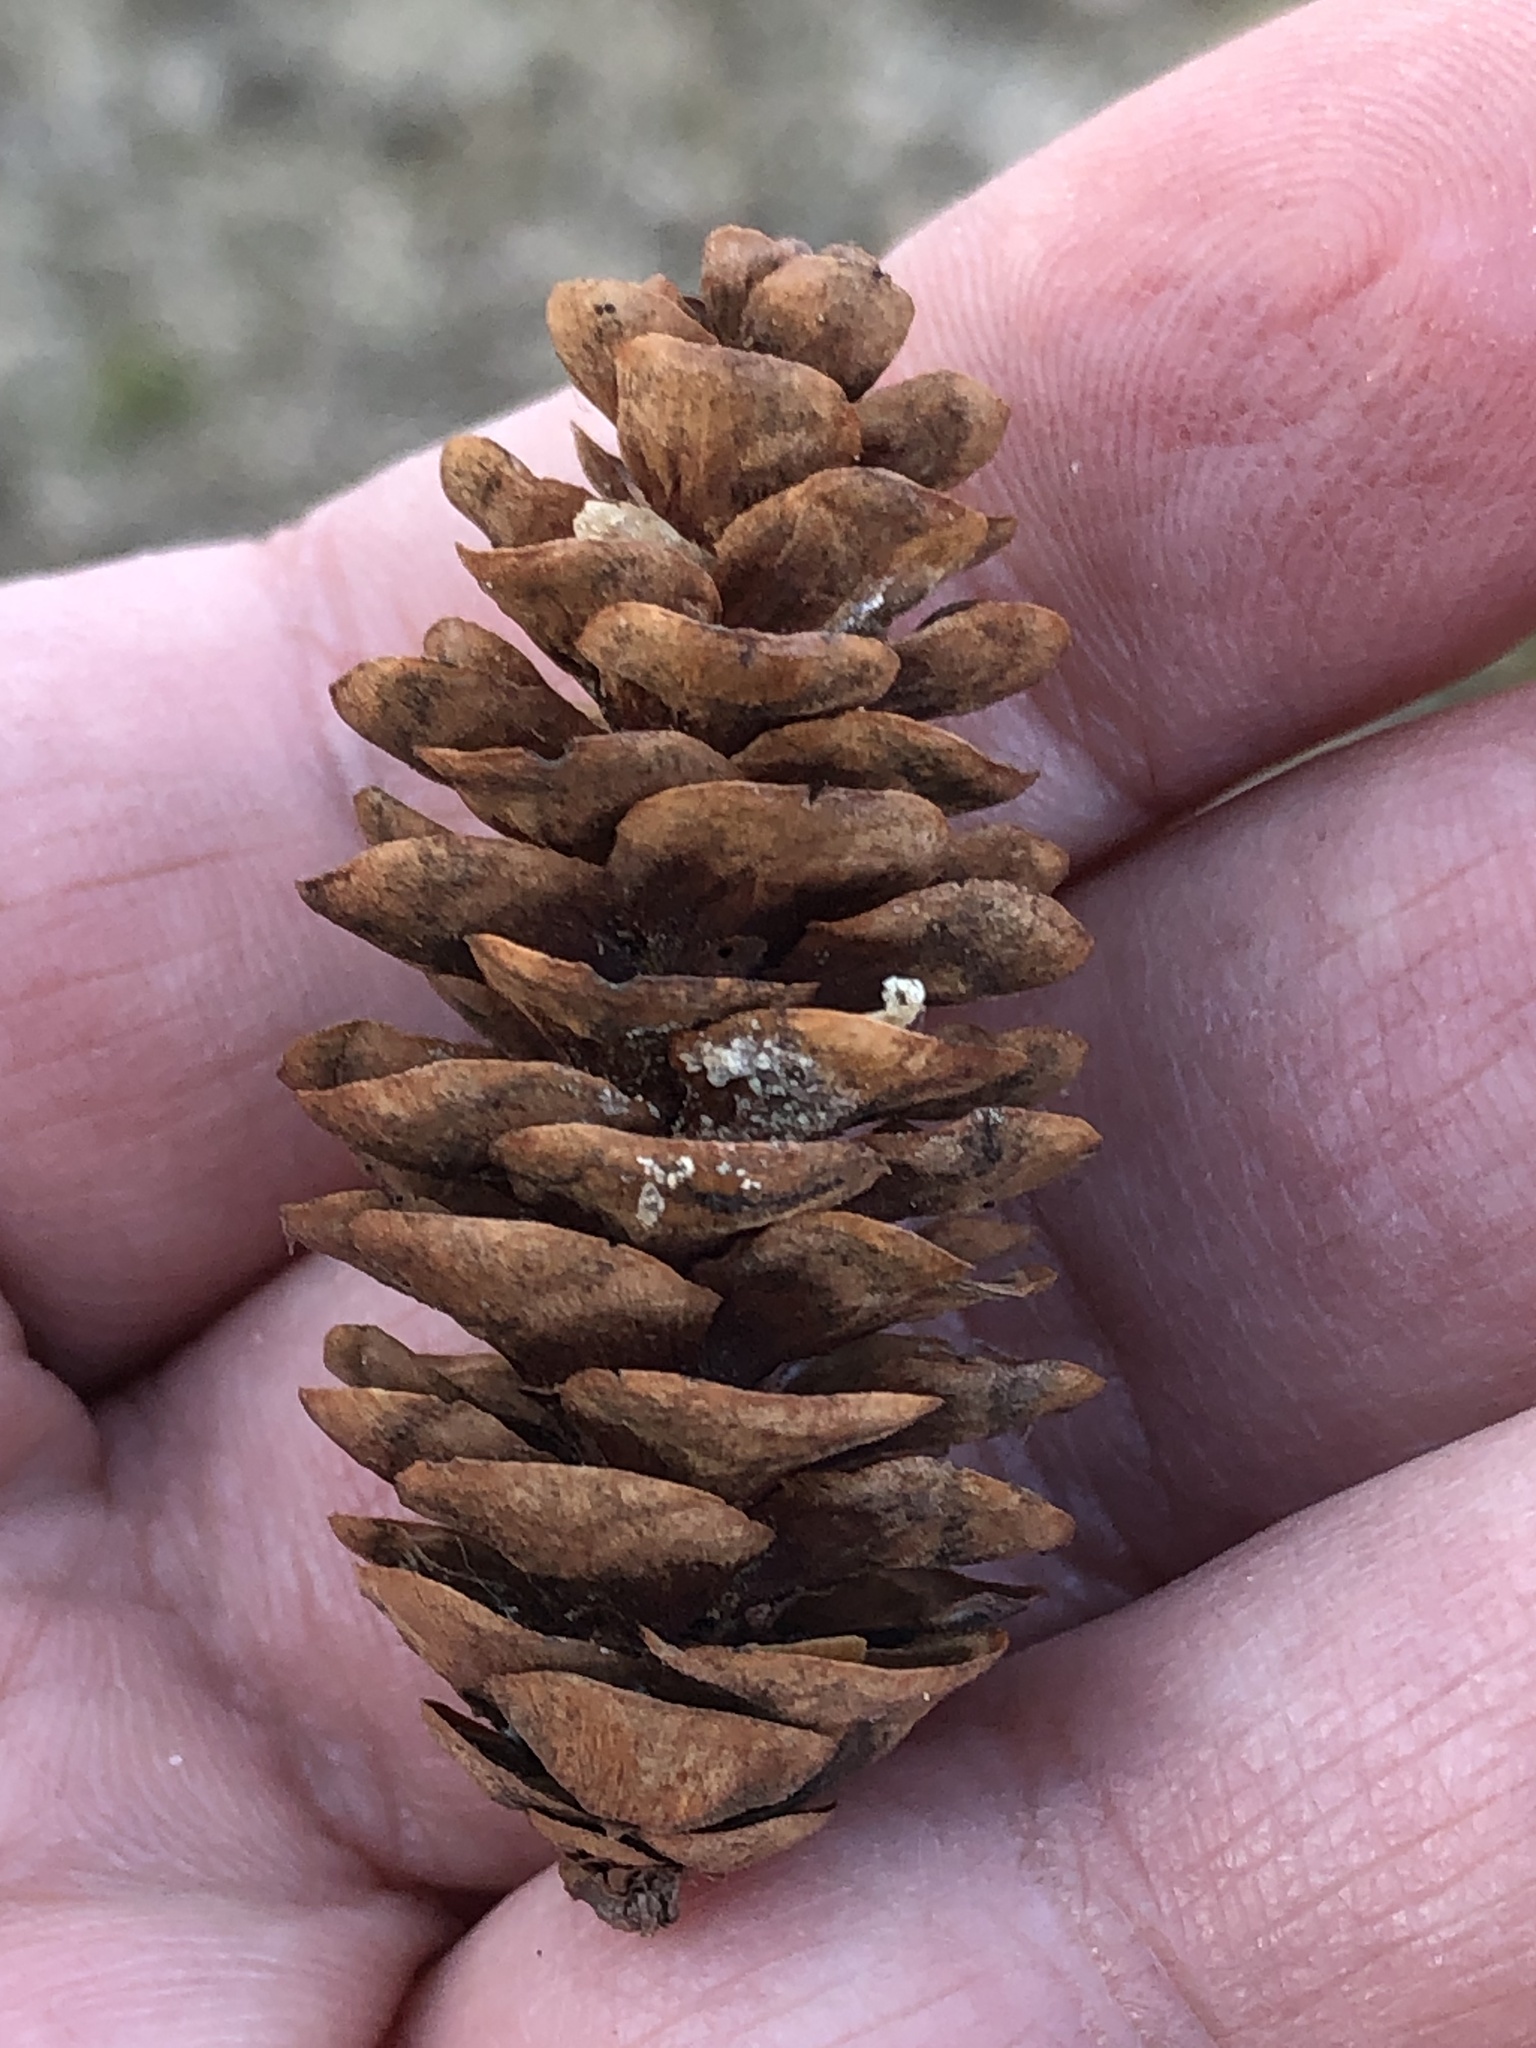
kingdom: Plantae
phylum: Tracheophyta
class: Pinopsida
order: Pinales
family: Pinaceae
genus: Picea
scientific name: Picea glauca
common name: White spruce
